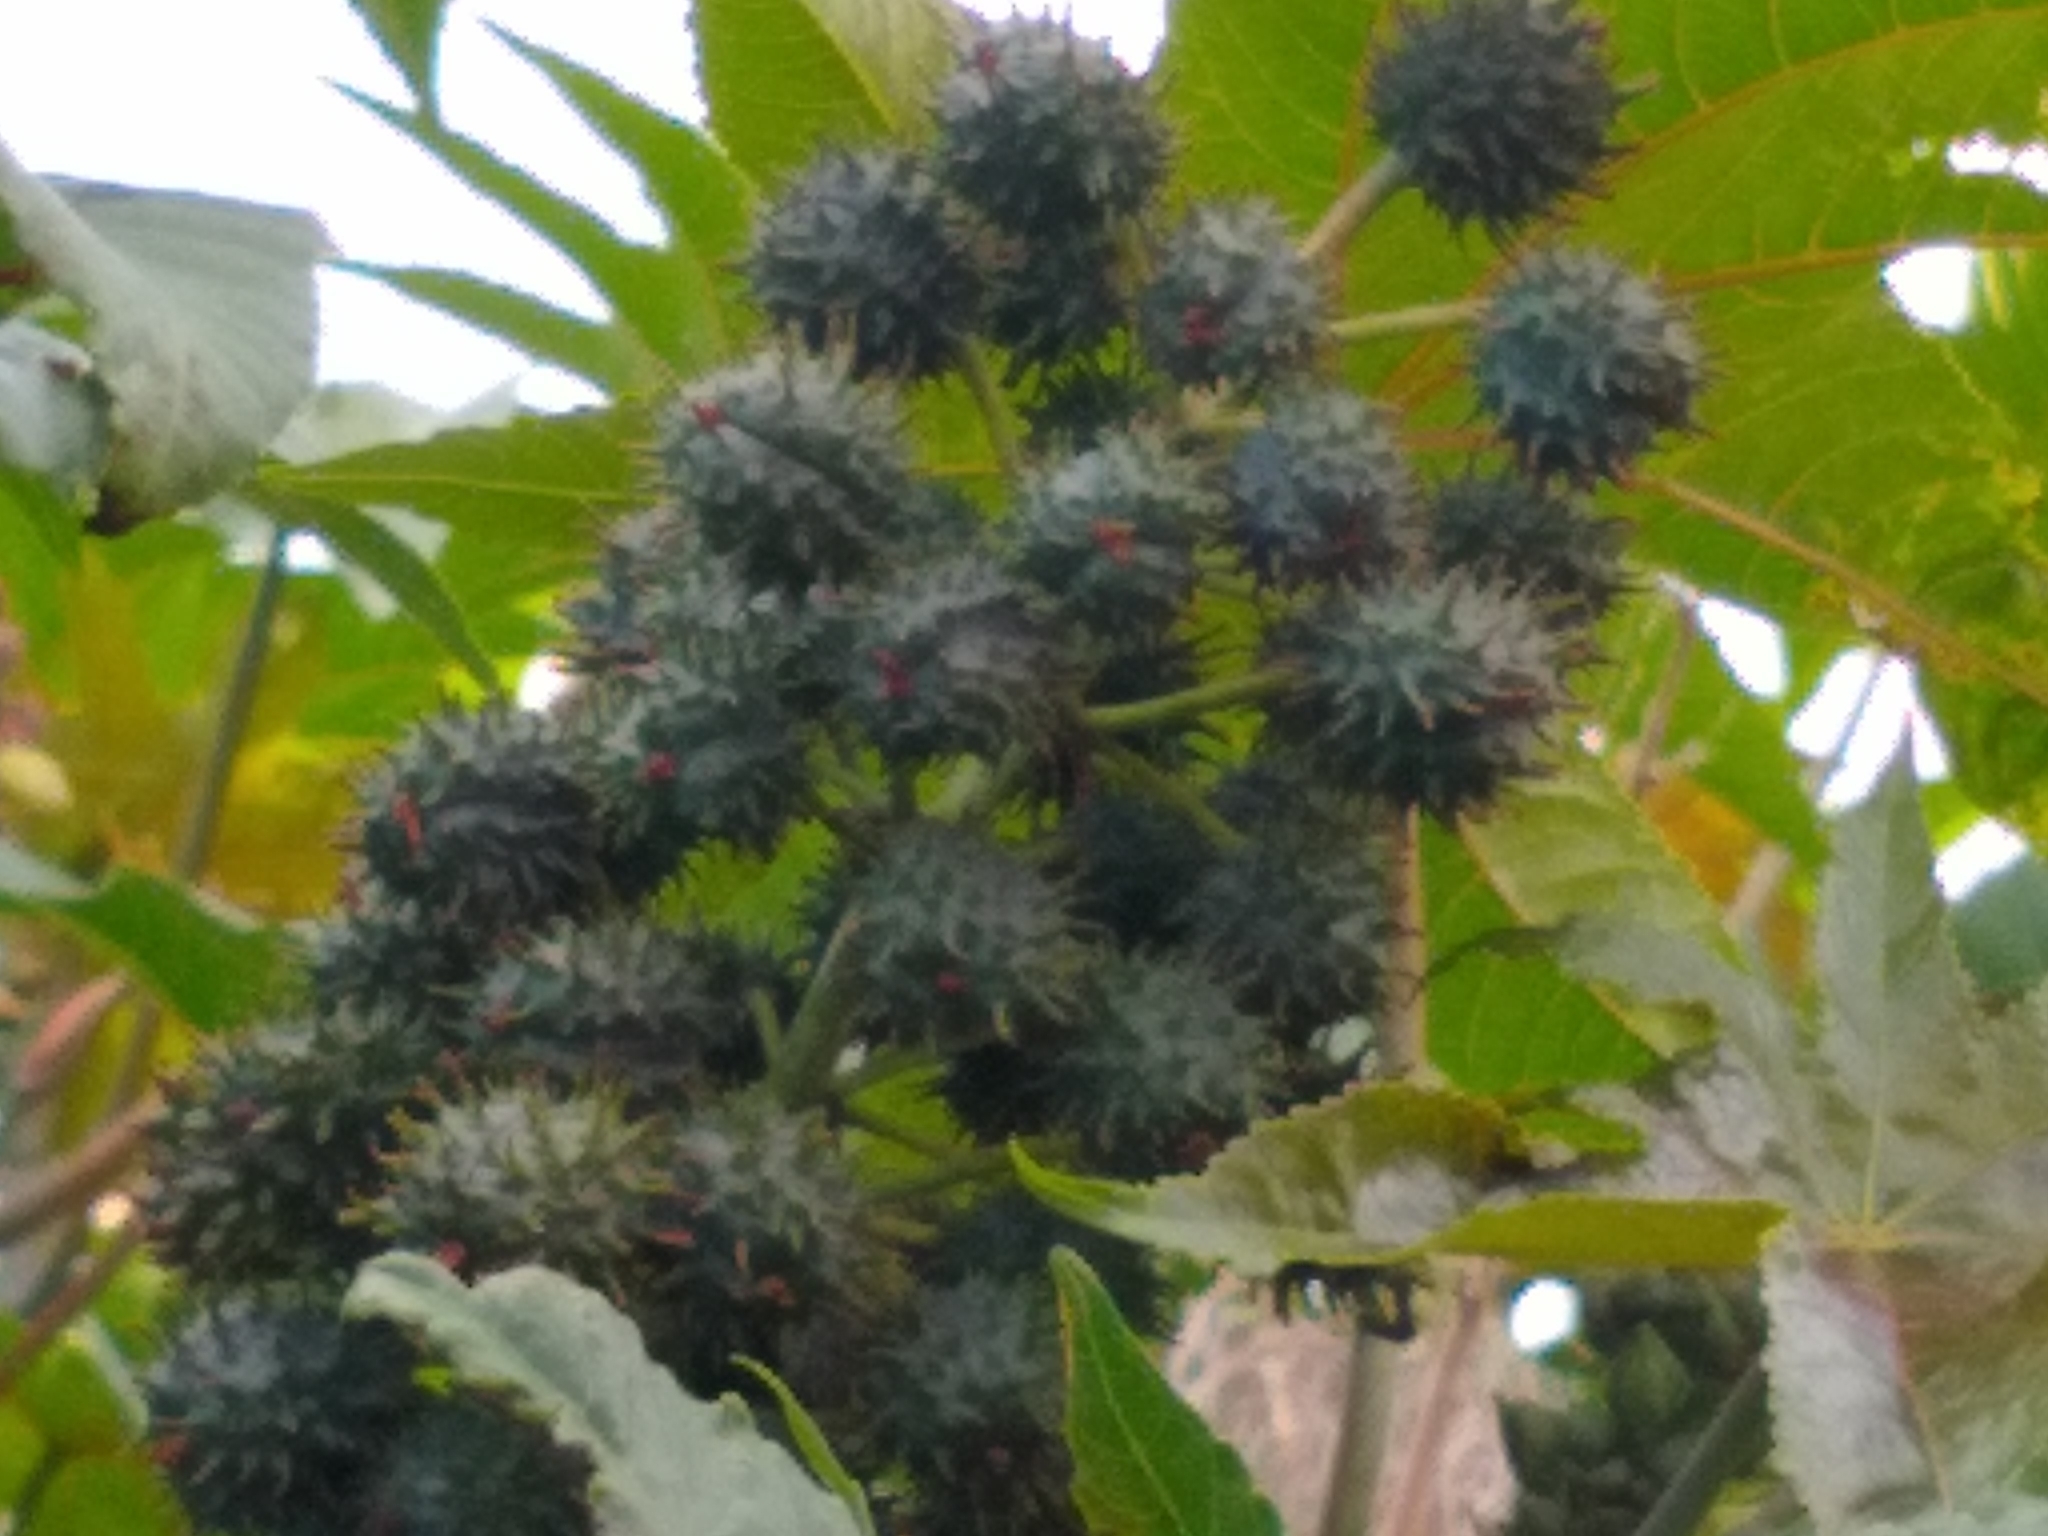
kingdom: Plantae
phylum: Tracheophyta
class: Magnoliopsida
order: Malpighiales
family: Euphorbiaceae
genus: Ricinus
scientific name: Ricinus communis
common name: Castor-oil-plant
